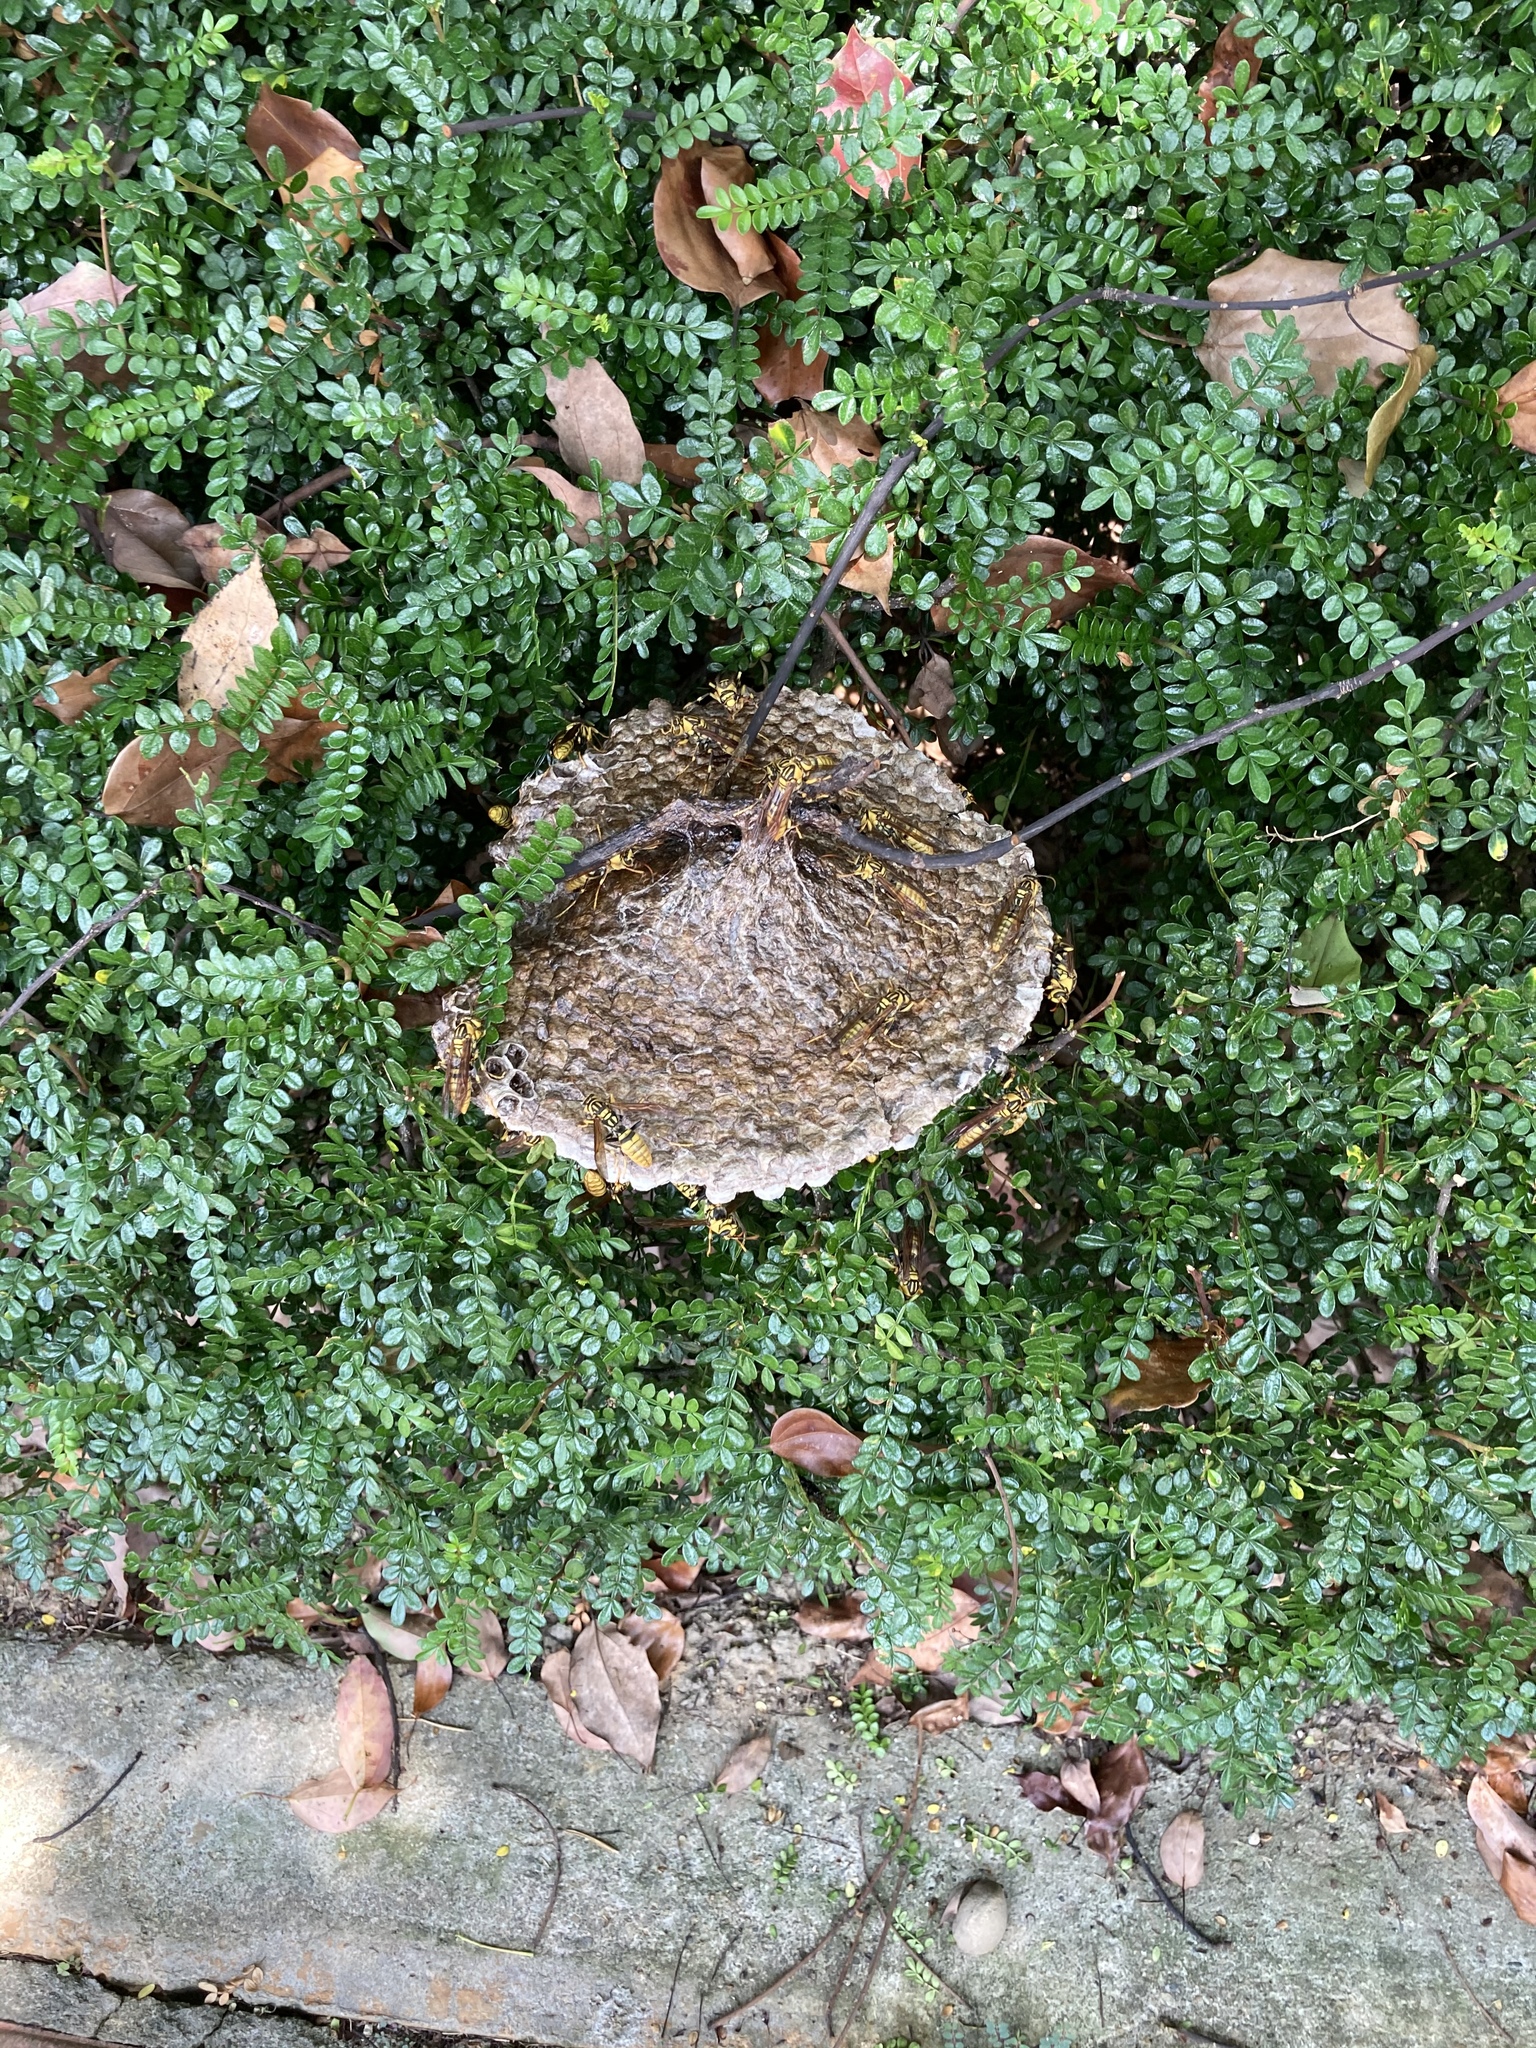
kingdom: Animalia
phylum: Arthropoda
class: Insecta
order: Hymenoptera
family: Eumenidae
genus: Polistes
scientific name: Polistes rothneyi
